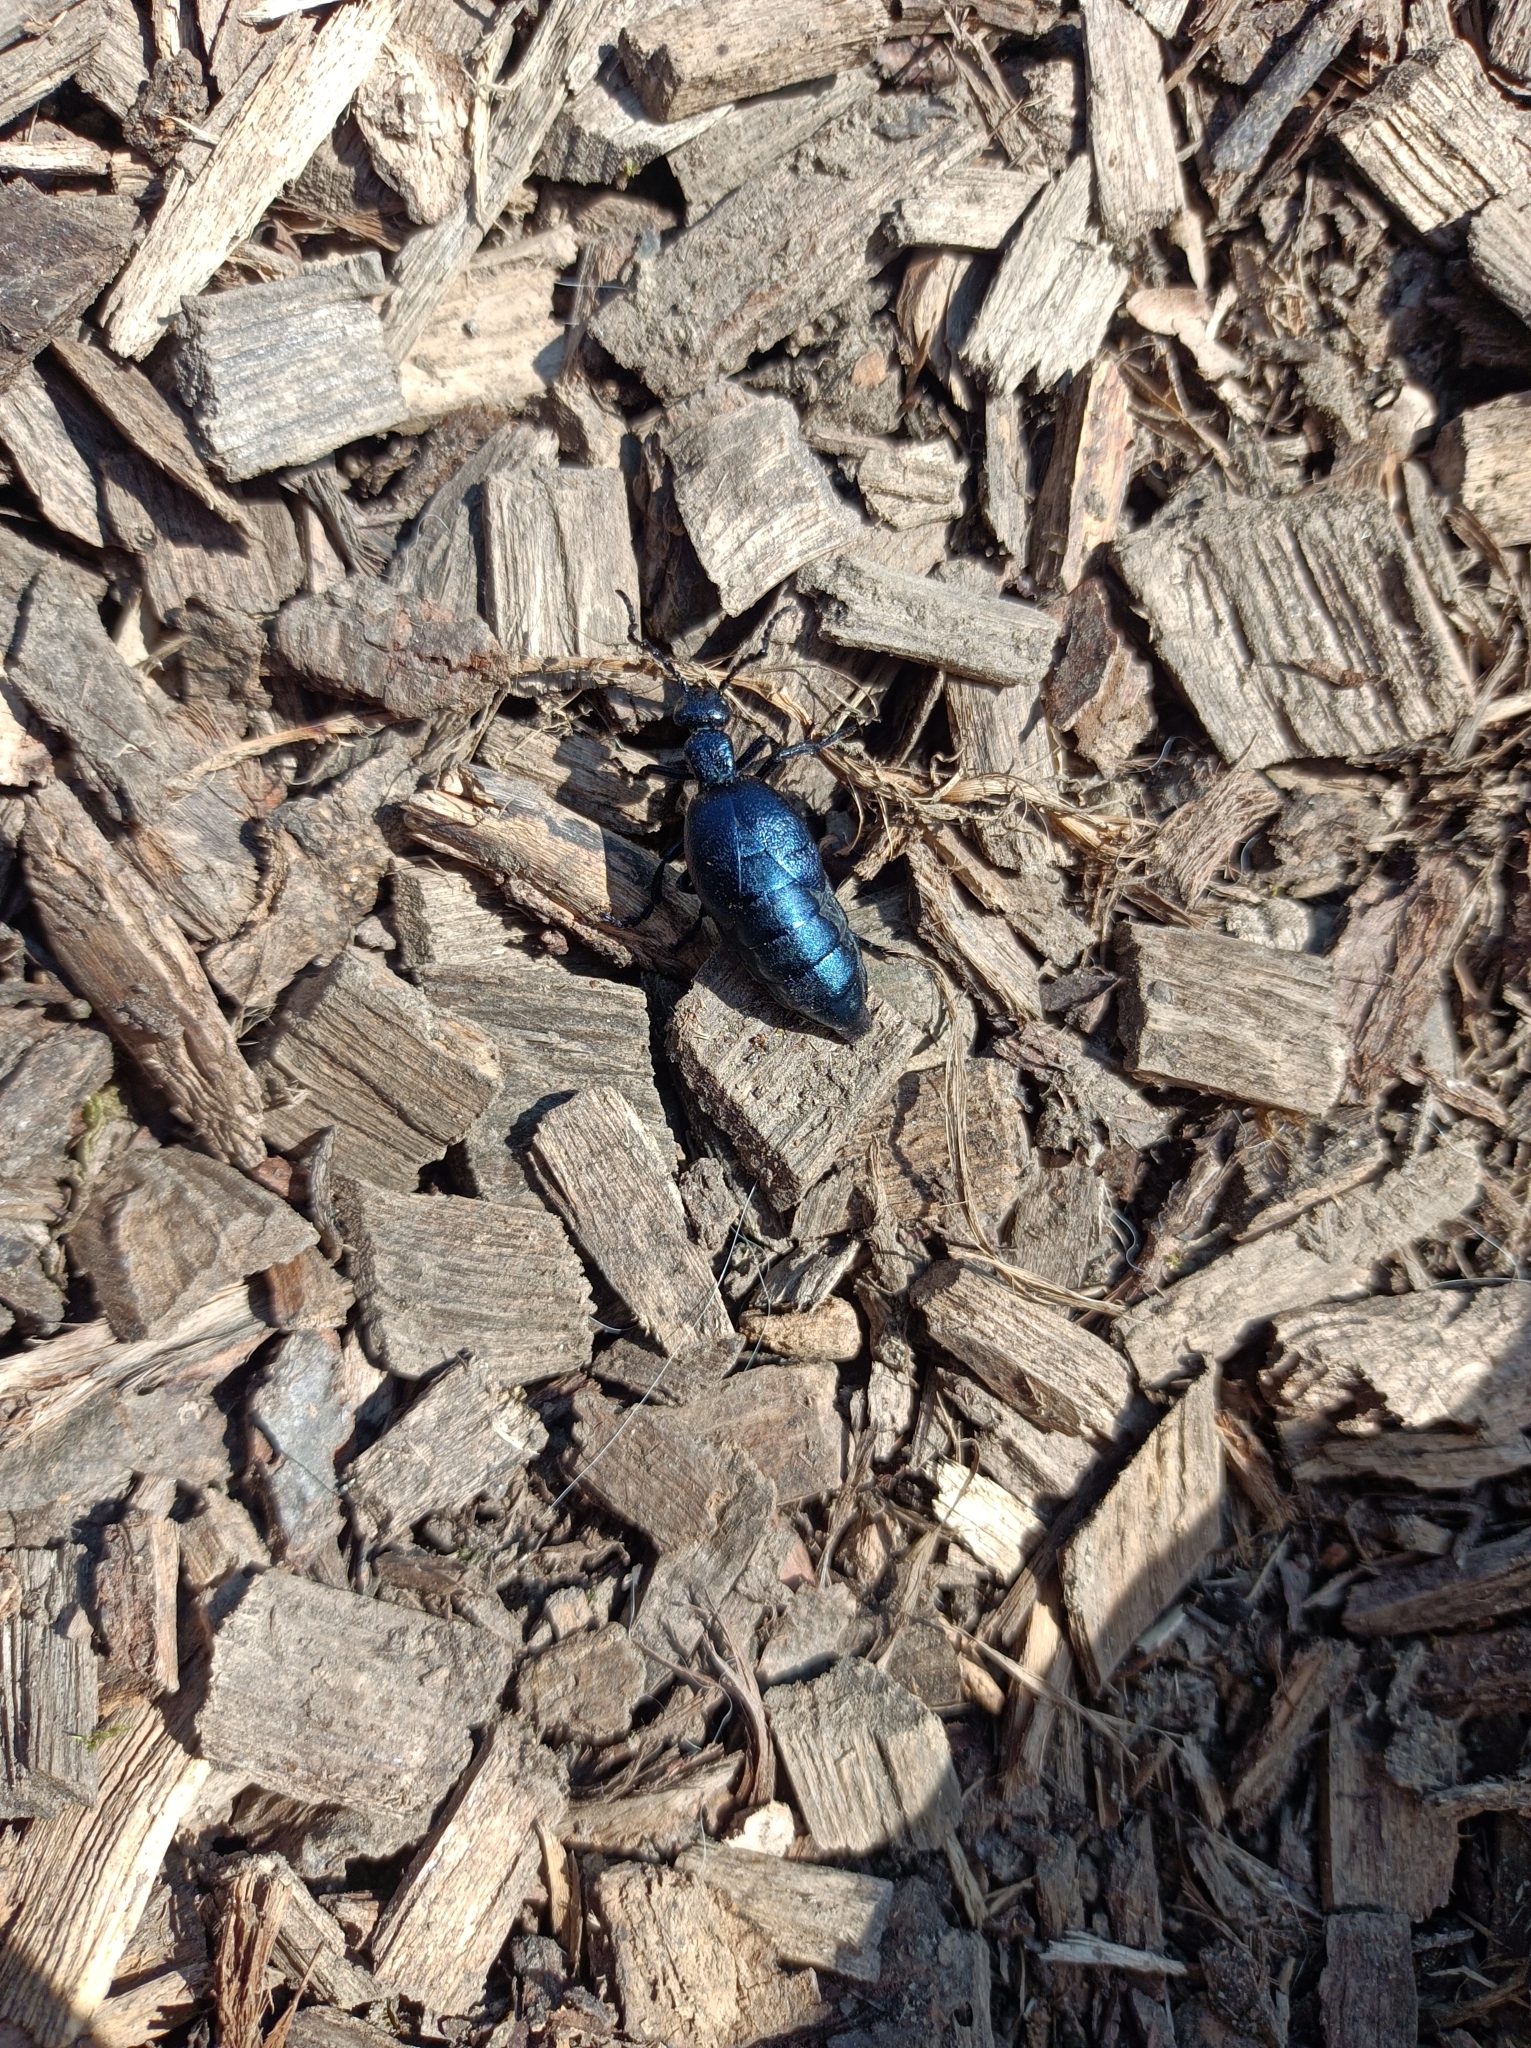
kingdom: Animalia
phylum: Arthropoda
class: Insecta
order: Coleoptera
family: Meloidae
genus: Meloe
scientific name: Meloe violaceus
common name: Violet oil-beetle
